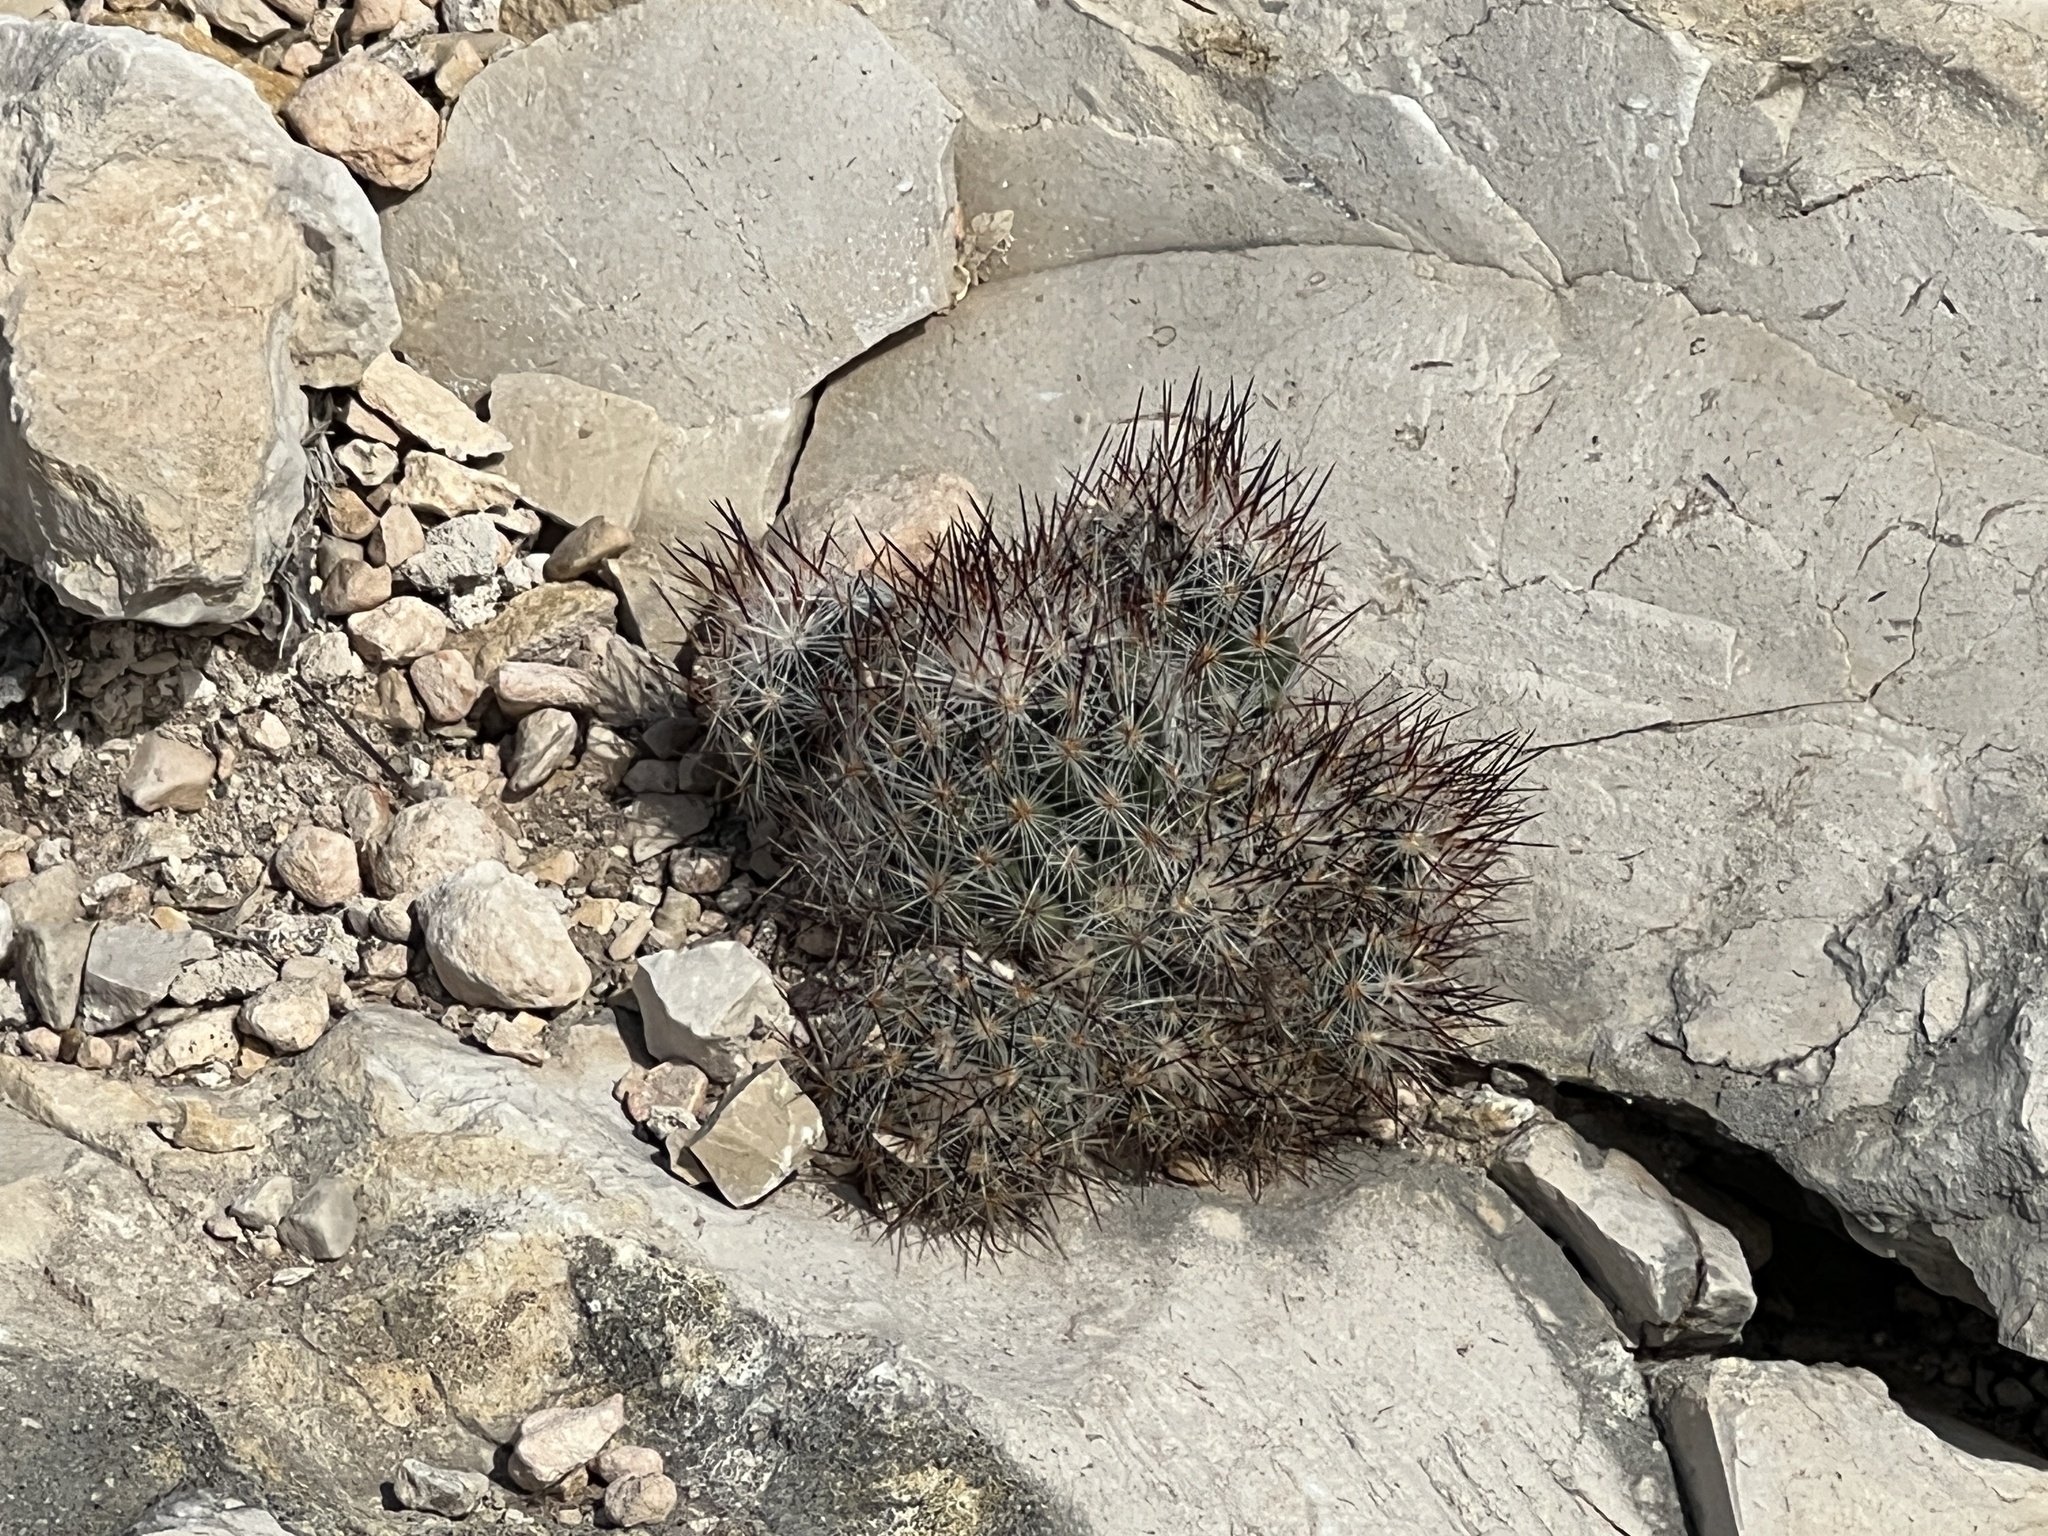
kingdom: Plantae
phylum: Tracheophyta
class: Magnoliopsida
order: Caryophyllales
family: Cactaceae
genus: Pelecyphora
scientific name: Pelecyphora emskoetteriana
